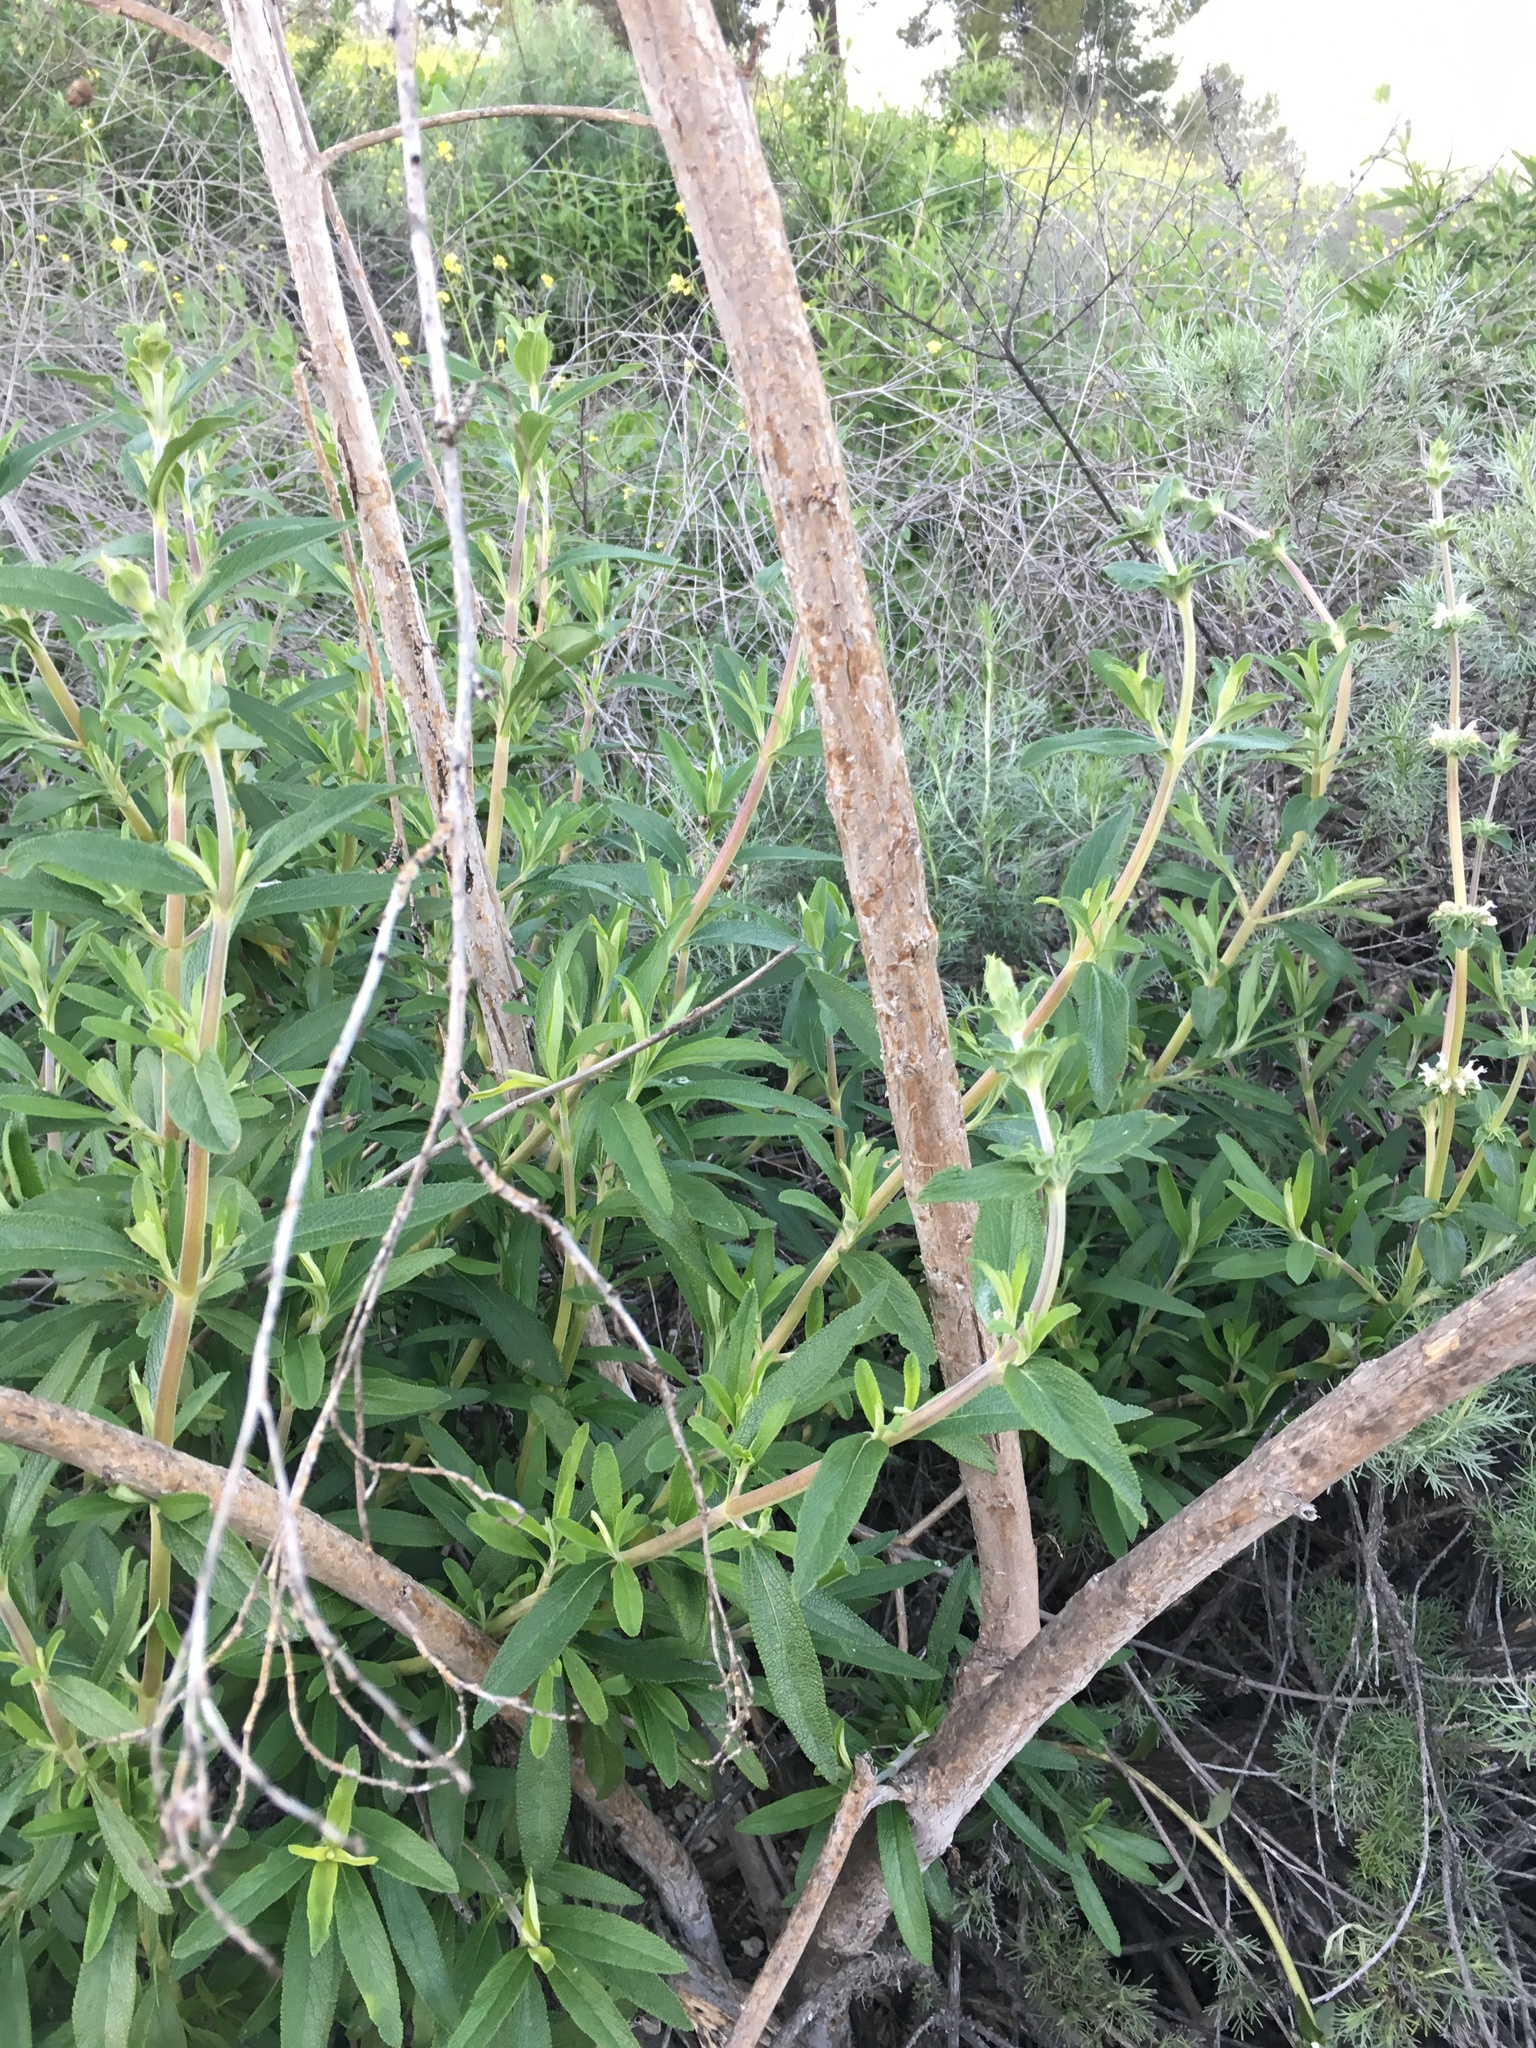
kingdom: Plantae
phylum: Tracheophyta
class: Magnoliopsida
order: Lamiales
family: Lamiaceae
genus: Salvia
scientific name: Salvia mellifera
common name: Black sage
